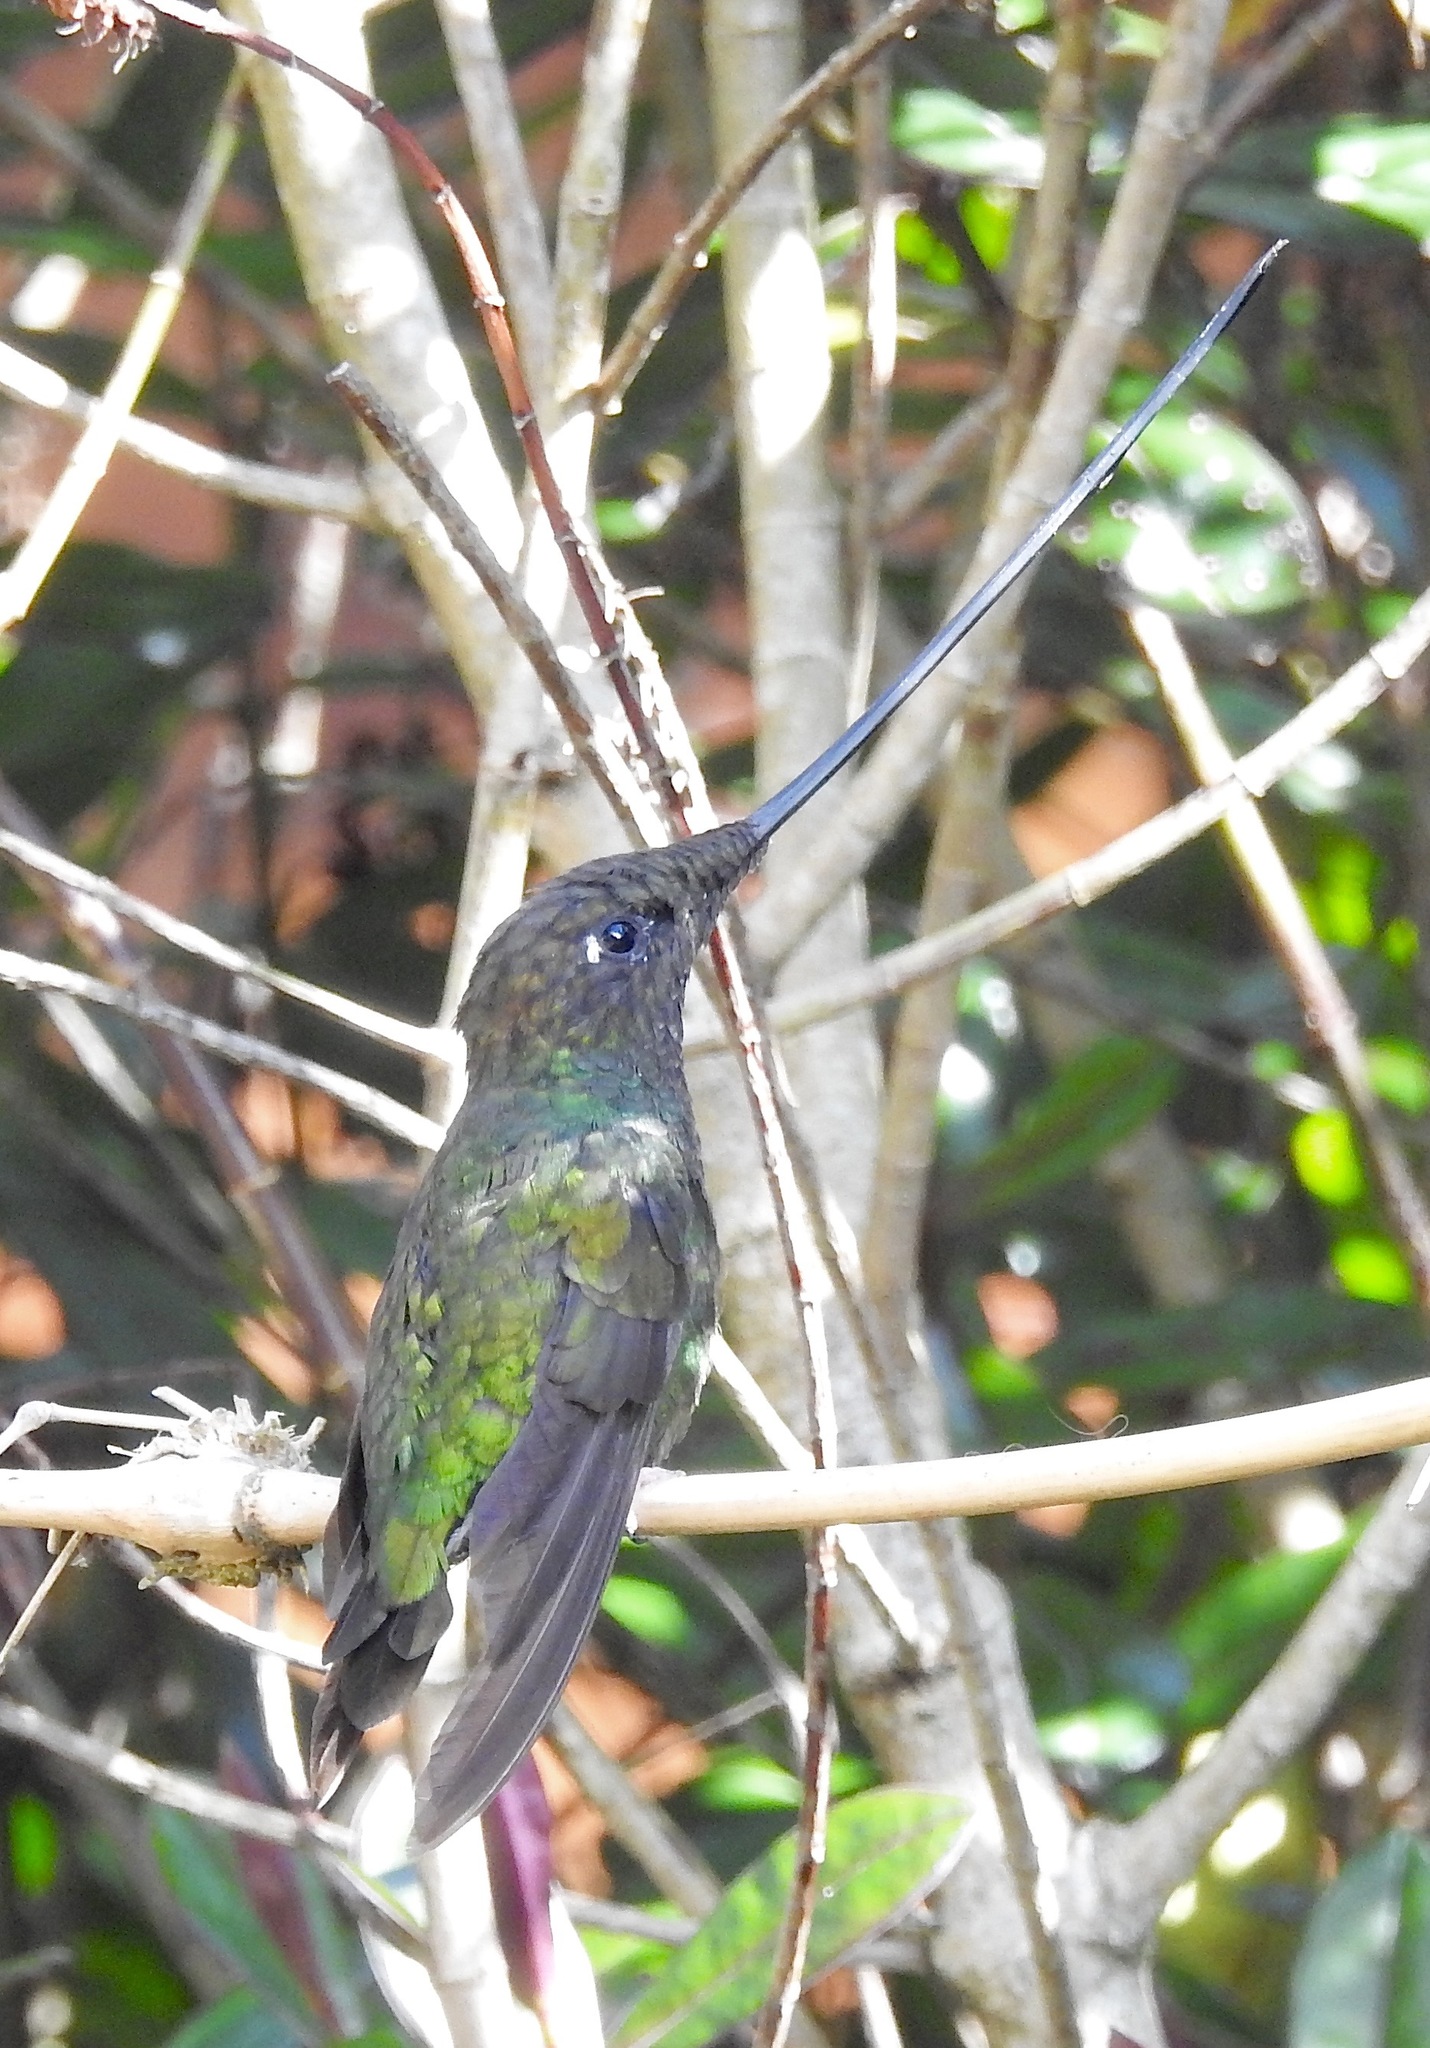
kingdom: Animalia
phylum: Chordata
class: Aves
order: Apodiformes
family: Trochilidae
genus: Ensifera
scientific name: Ensifera ensifera
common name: Sword-billed hummingbird
